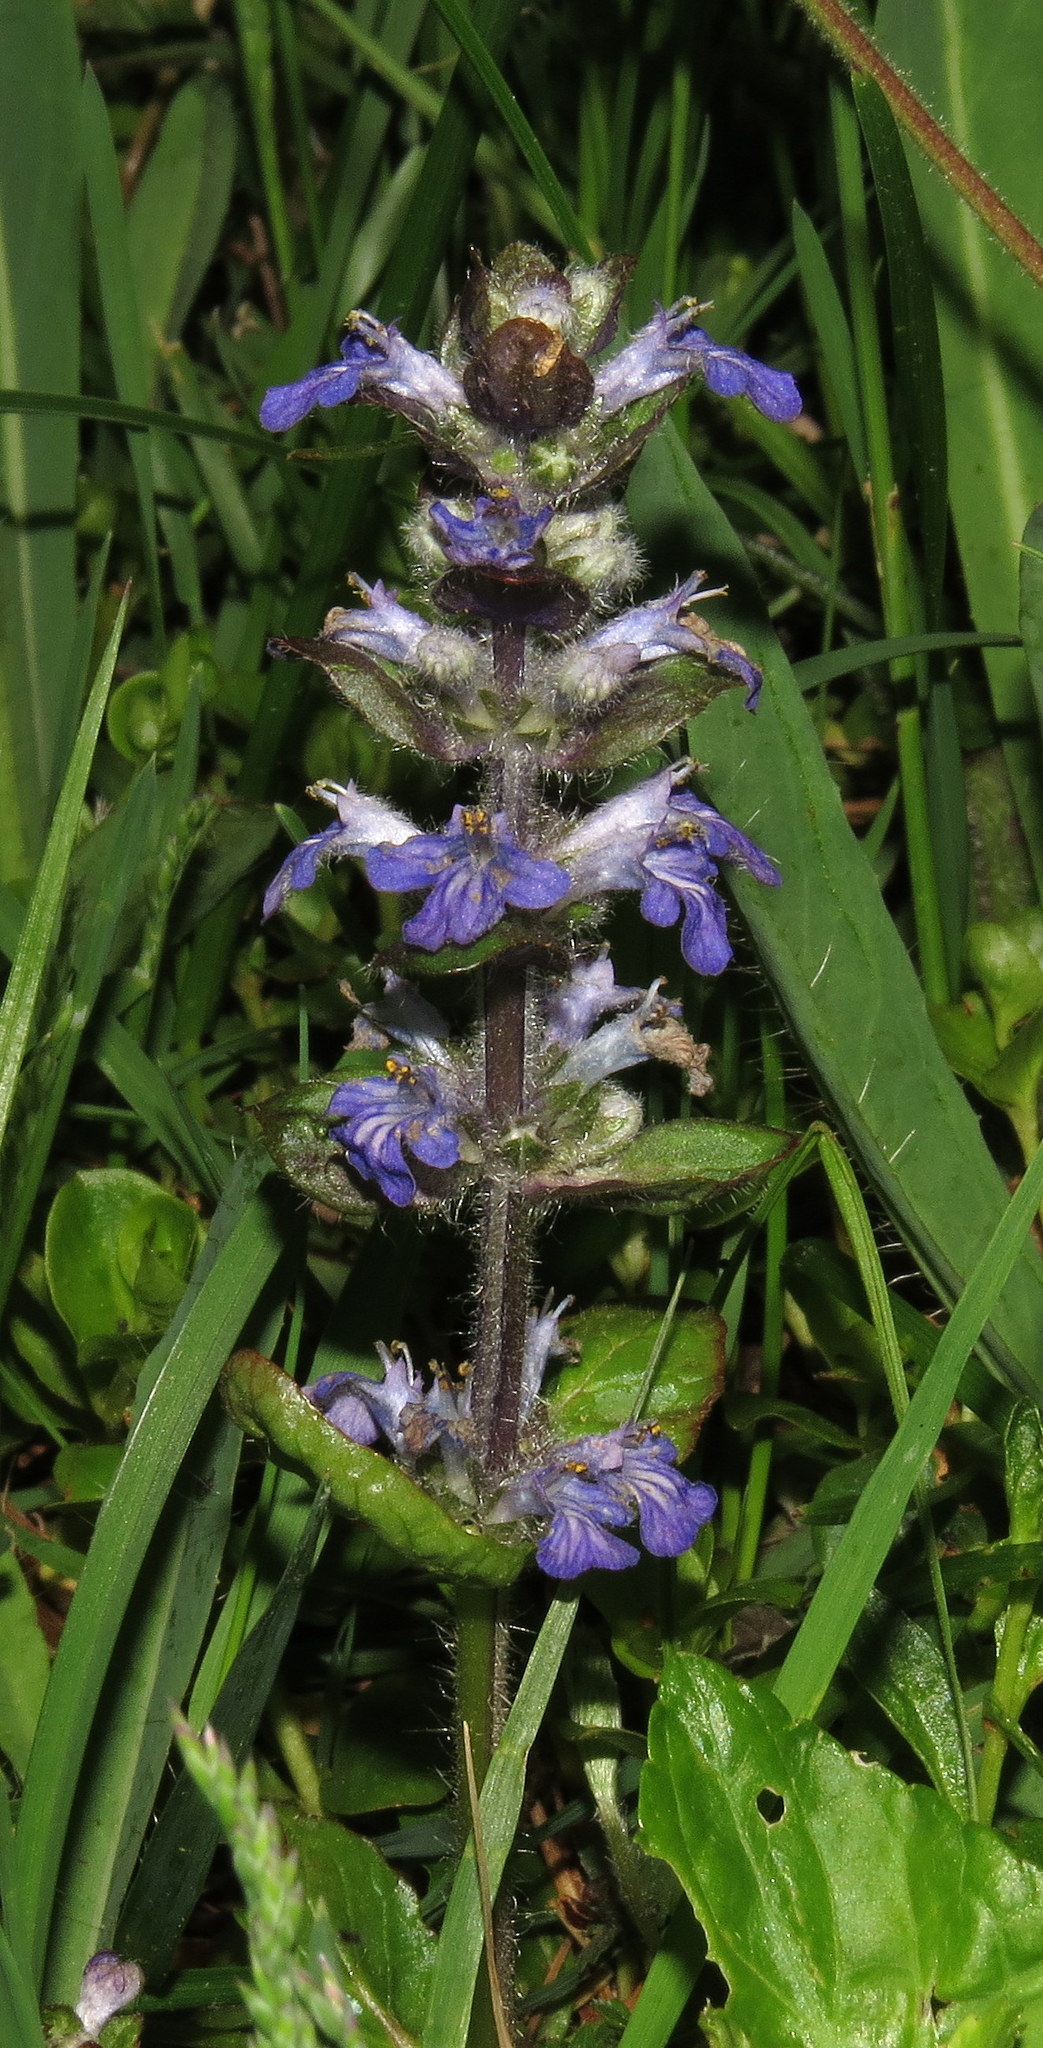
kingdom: Plantae
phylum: Tracheophyta
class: Magnoliopsida
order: Lamiales
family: Lamiaceae
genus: Ajuga
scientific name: Ajuga reptans
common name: Bugle
